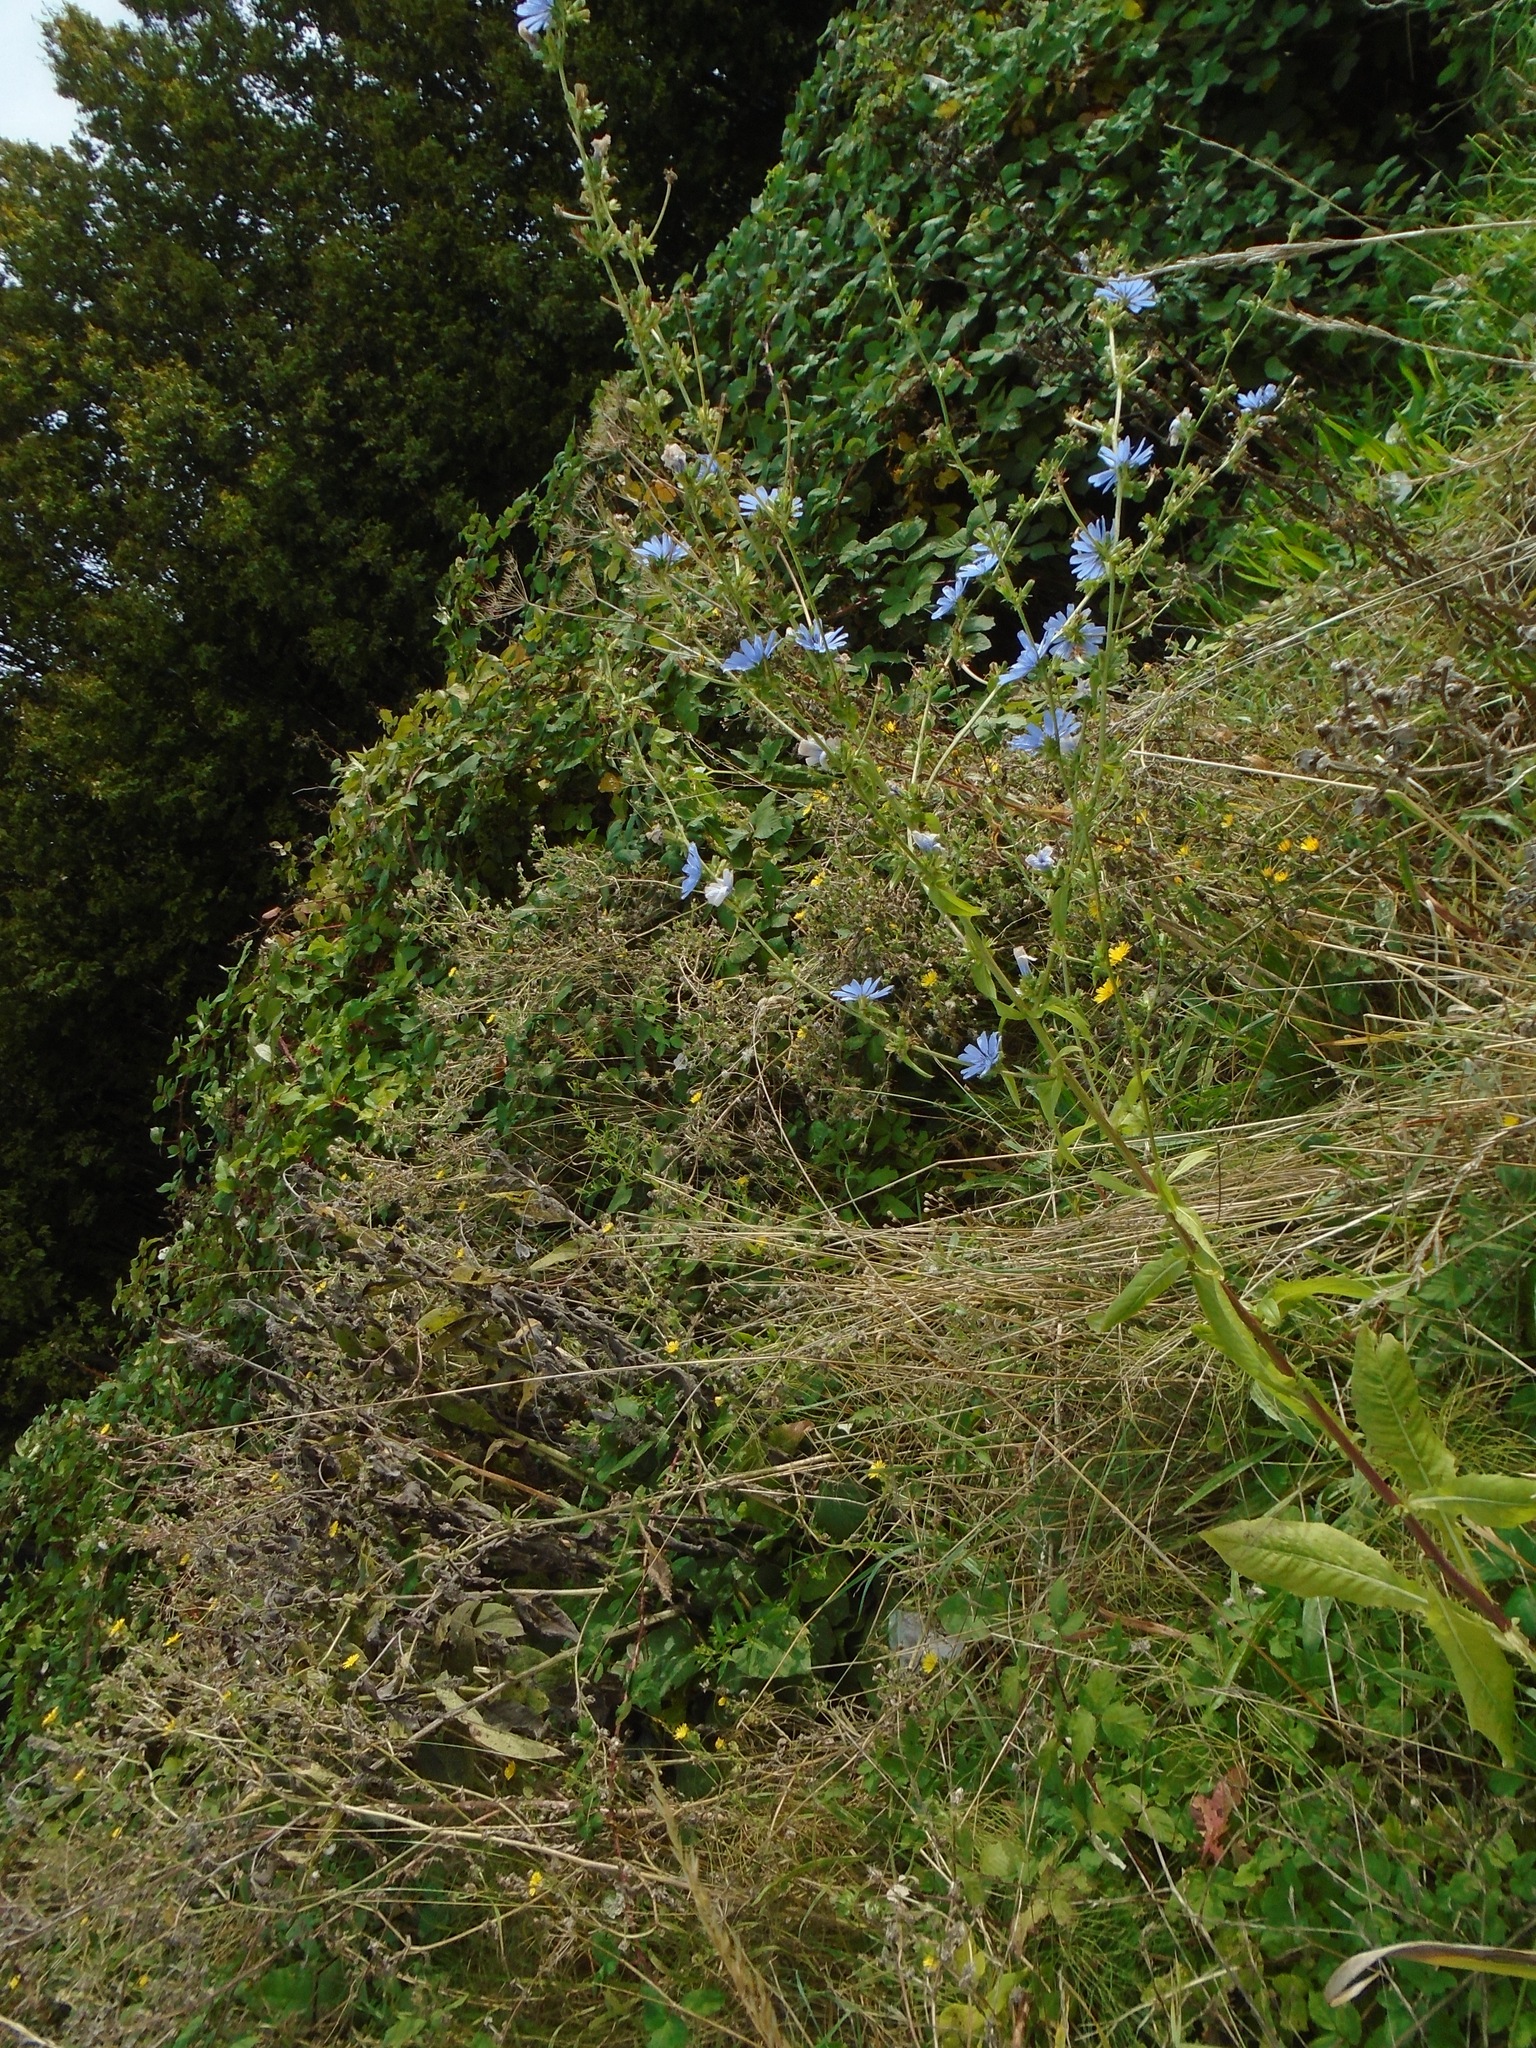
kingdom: Plantae
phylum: Tracheophyta
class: Magnoliopsida
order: Asterales
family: Asteraceae
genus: Cichorium
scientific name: Cichorium intybus
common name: Chicory
